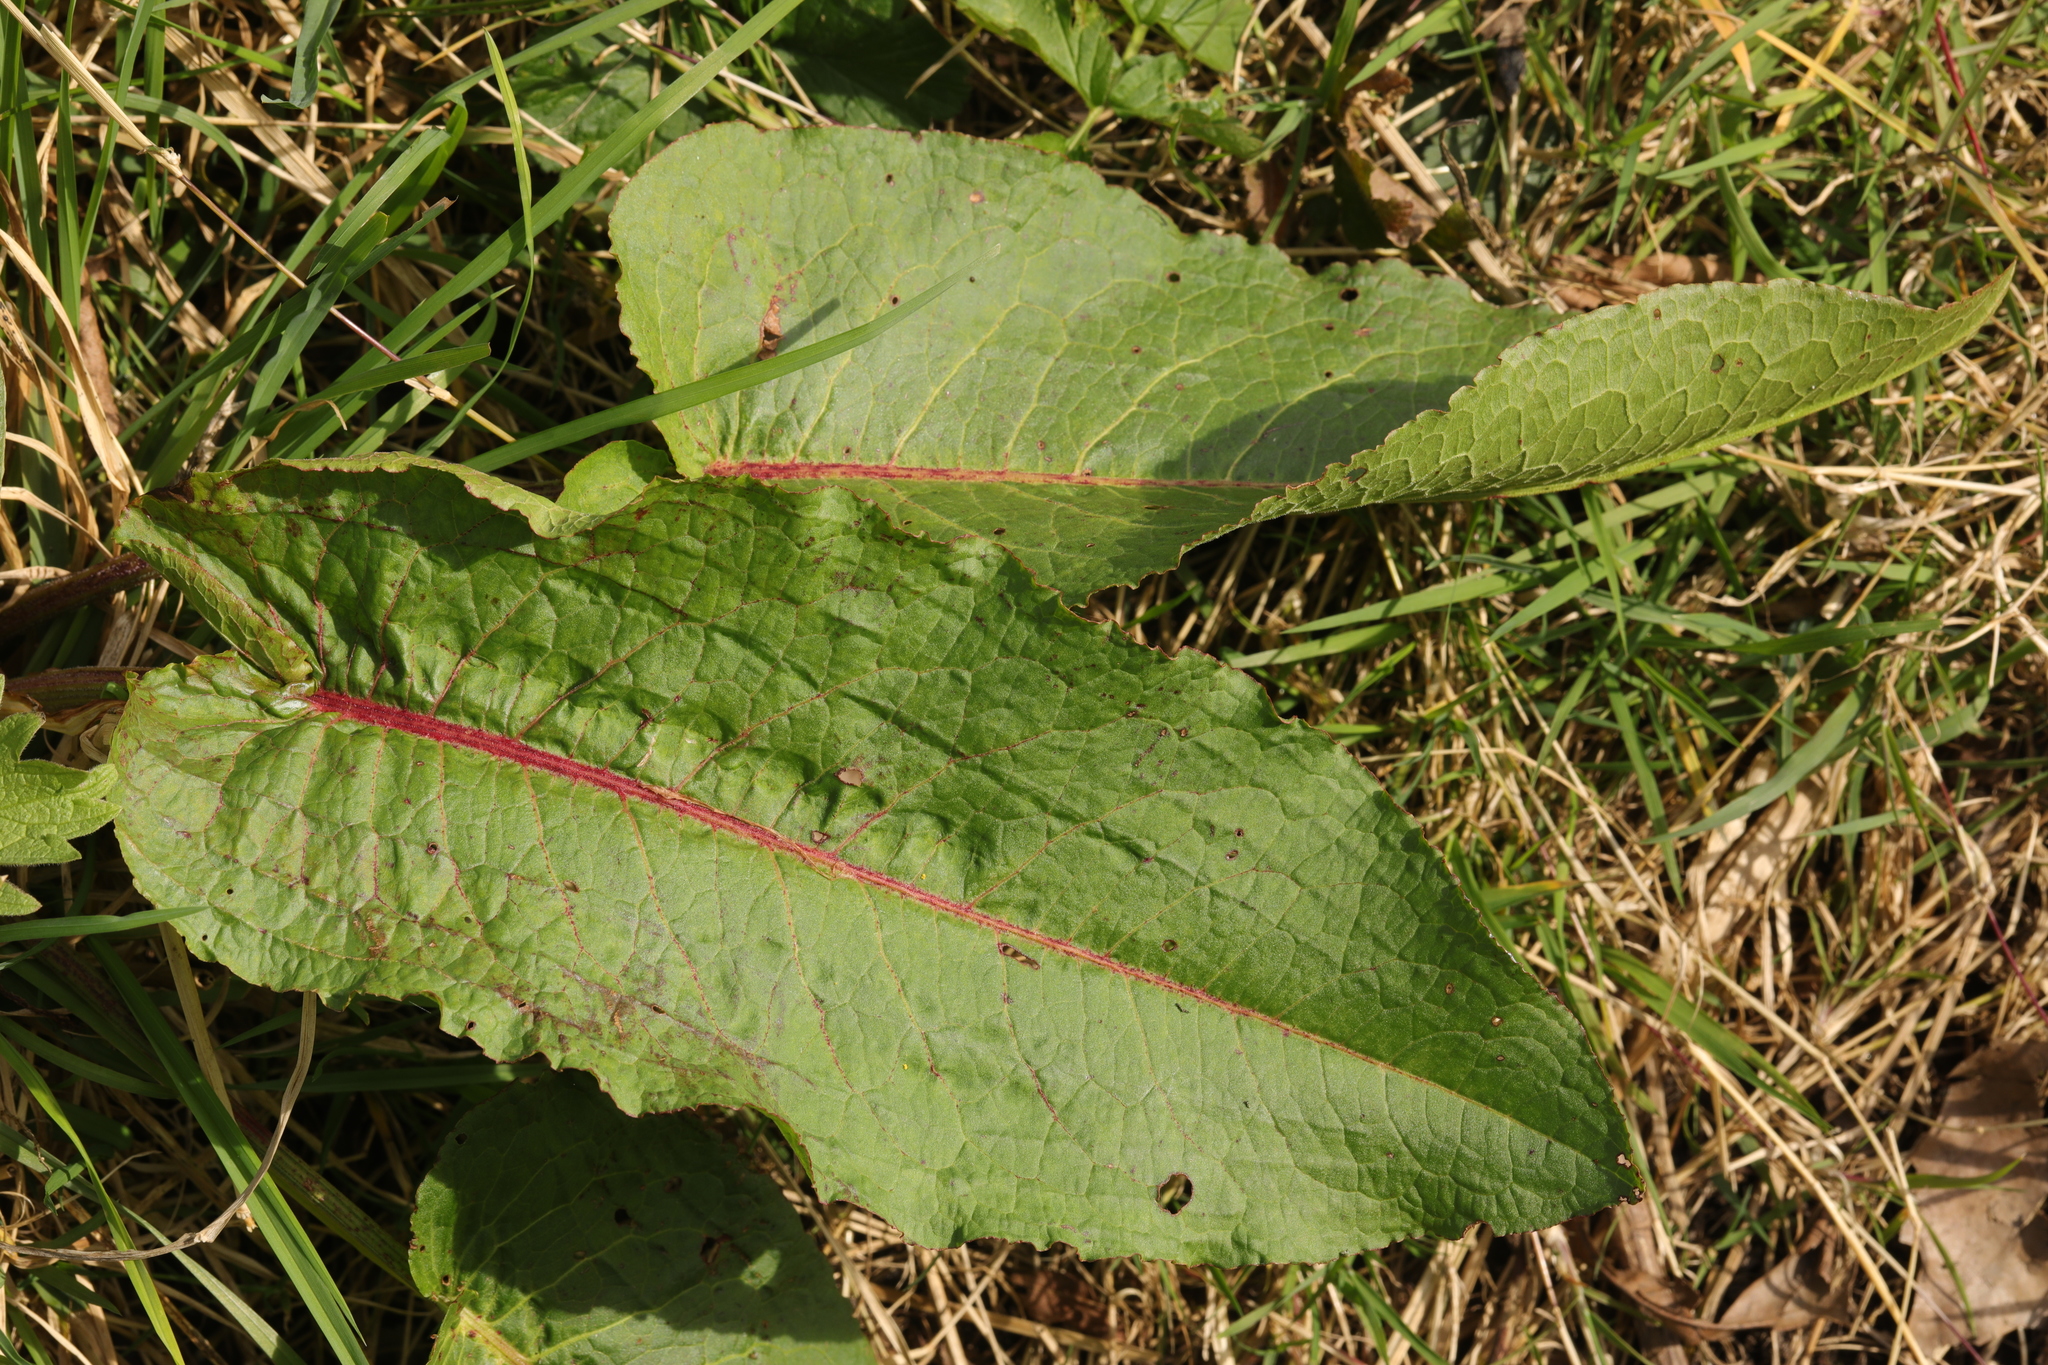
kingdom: Plantae
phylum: Tracheophyta
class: Magnoliopsida
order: Caryophyllales
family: Polygonaceae
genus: Rumex
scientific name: Rumex obtusifolius
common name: Bitter dock
